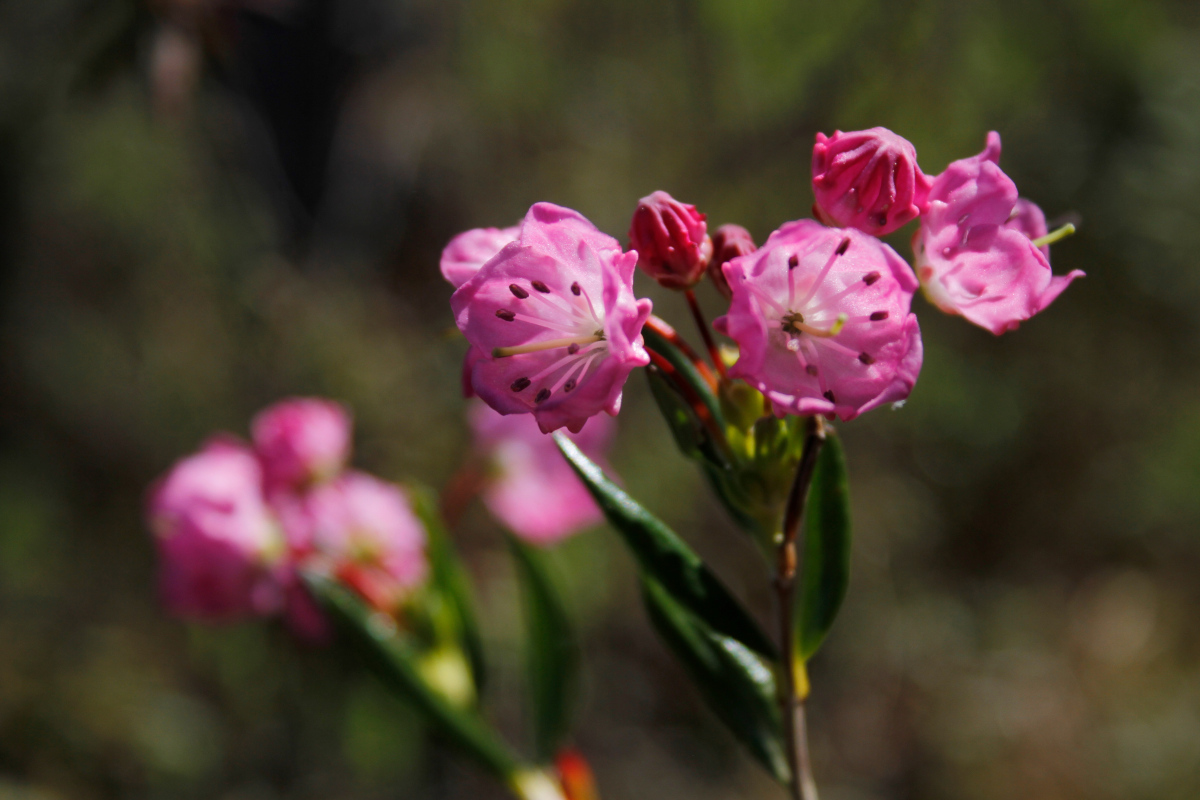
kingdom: Plantae
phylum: Tracheophyta
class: Magnoliopsida
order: Ericales
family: Ericaceae
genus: Kalmia
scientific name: Kalmia microphylla
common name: Alpine bog laurel
